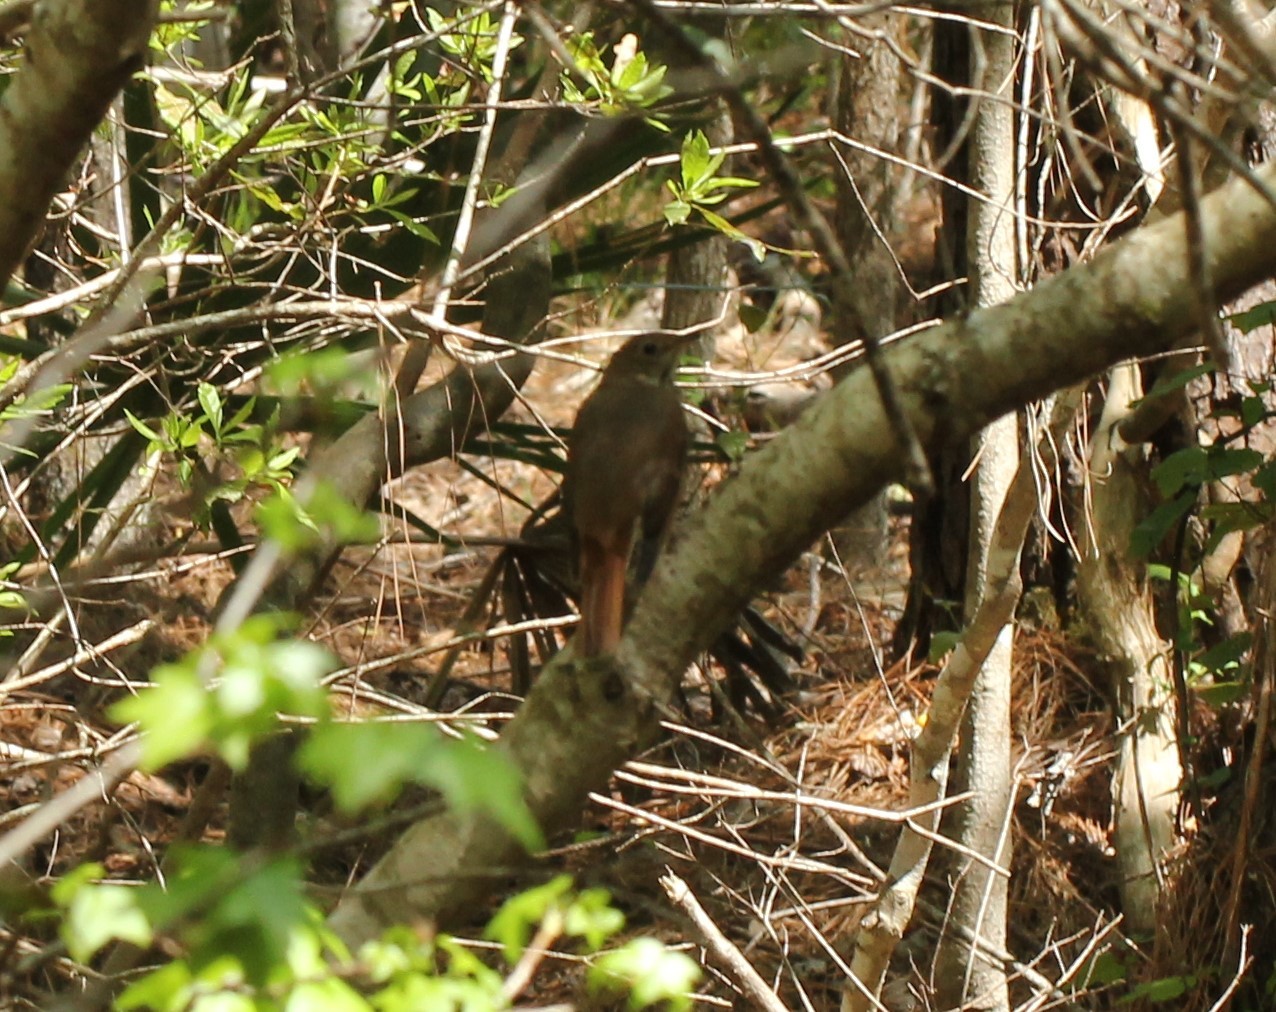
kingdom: Animalia
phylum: Chordata
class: Aves
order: Passeriformes
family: Turdidae
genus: Catharus
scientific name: Catharus guttatus
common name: Hermit thrush
